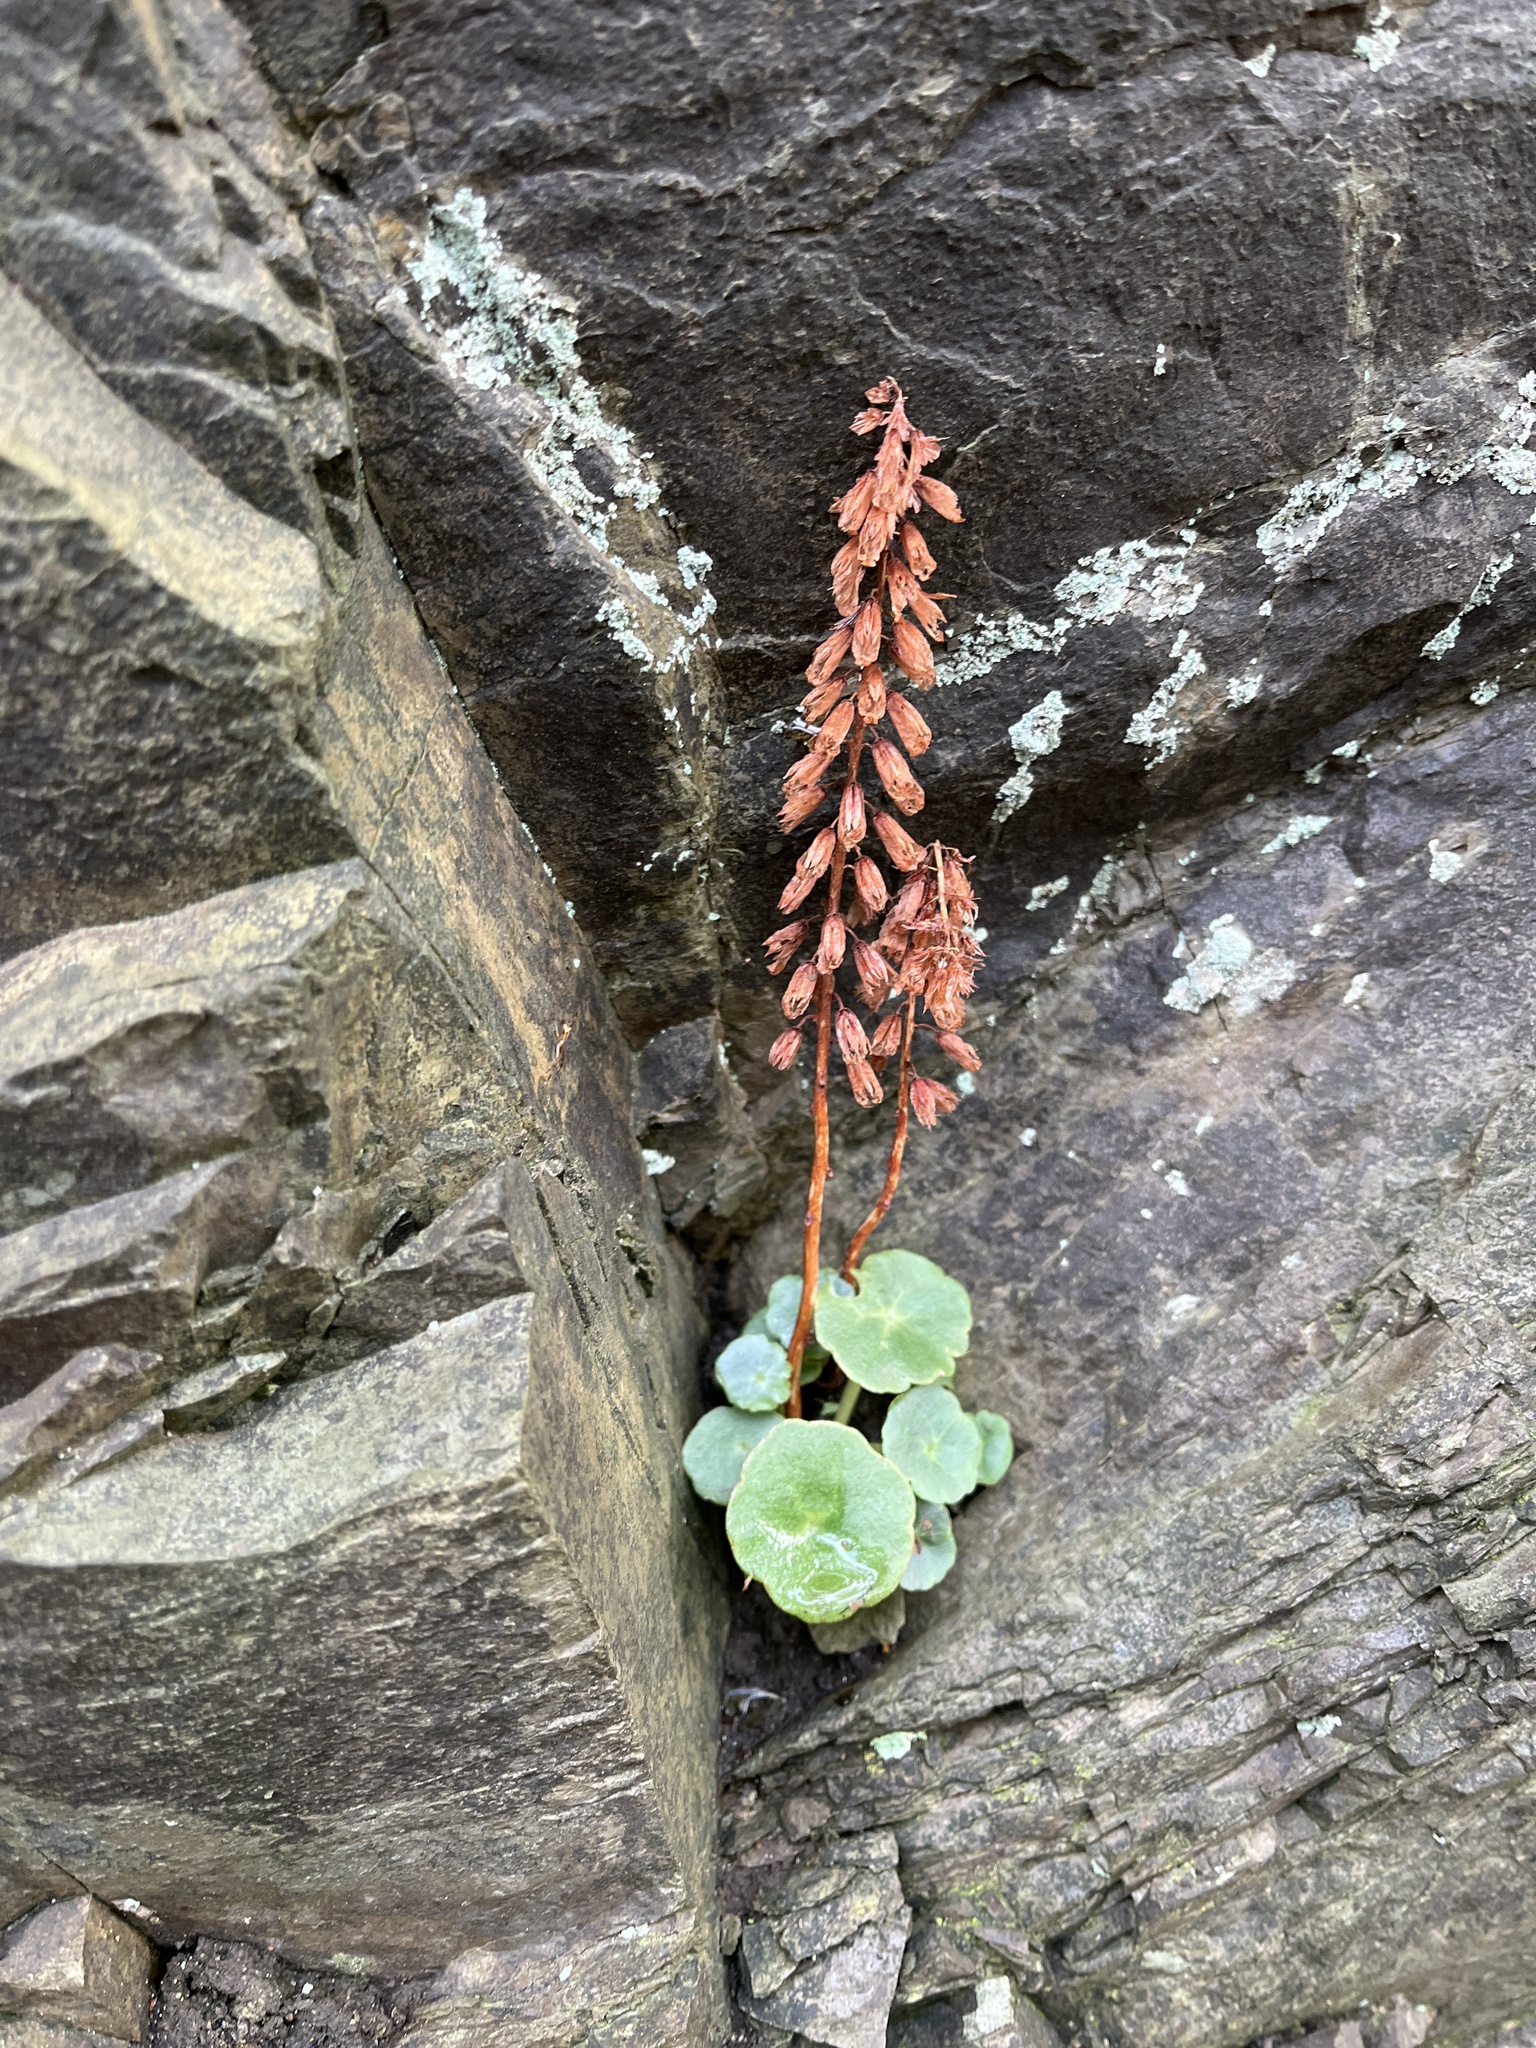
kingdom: Plantae
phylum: Tracheophyta
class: Magnoliopsida
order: Saxifragales
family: Crassulaceae
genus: Umbilicus
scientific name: Umbilicus rupestris
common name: Navelwort
